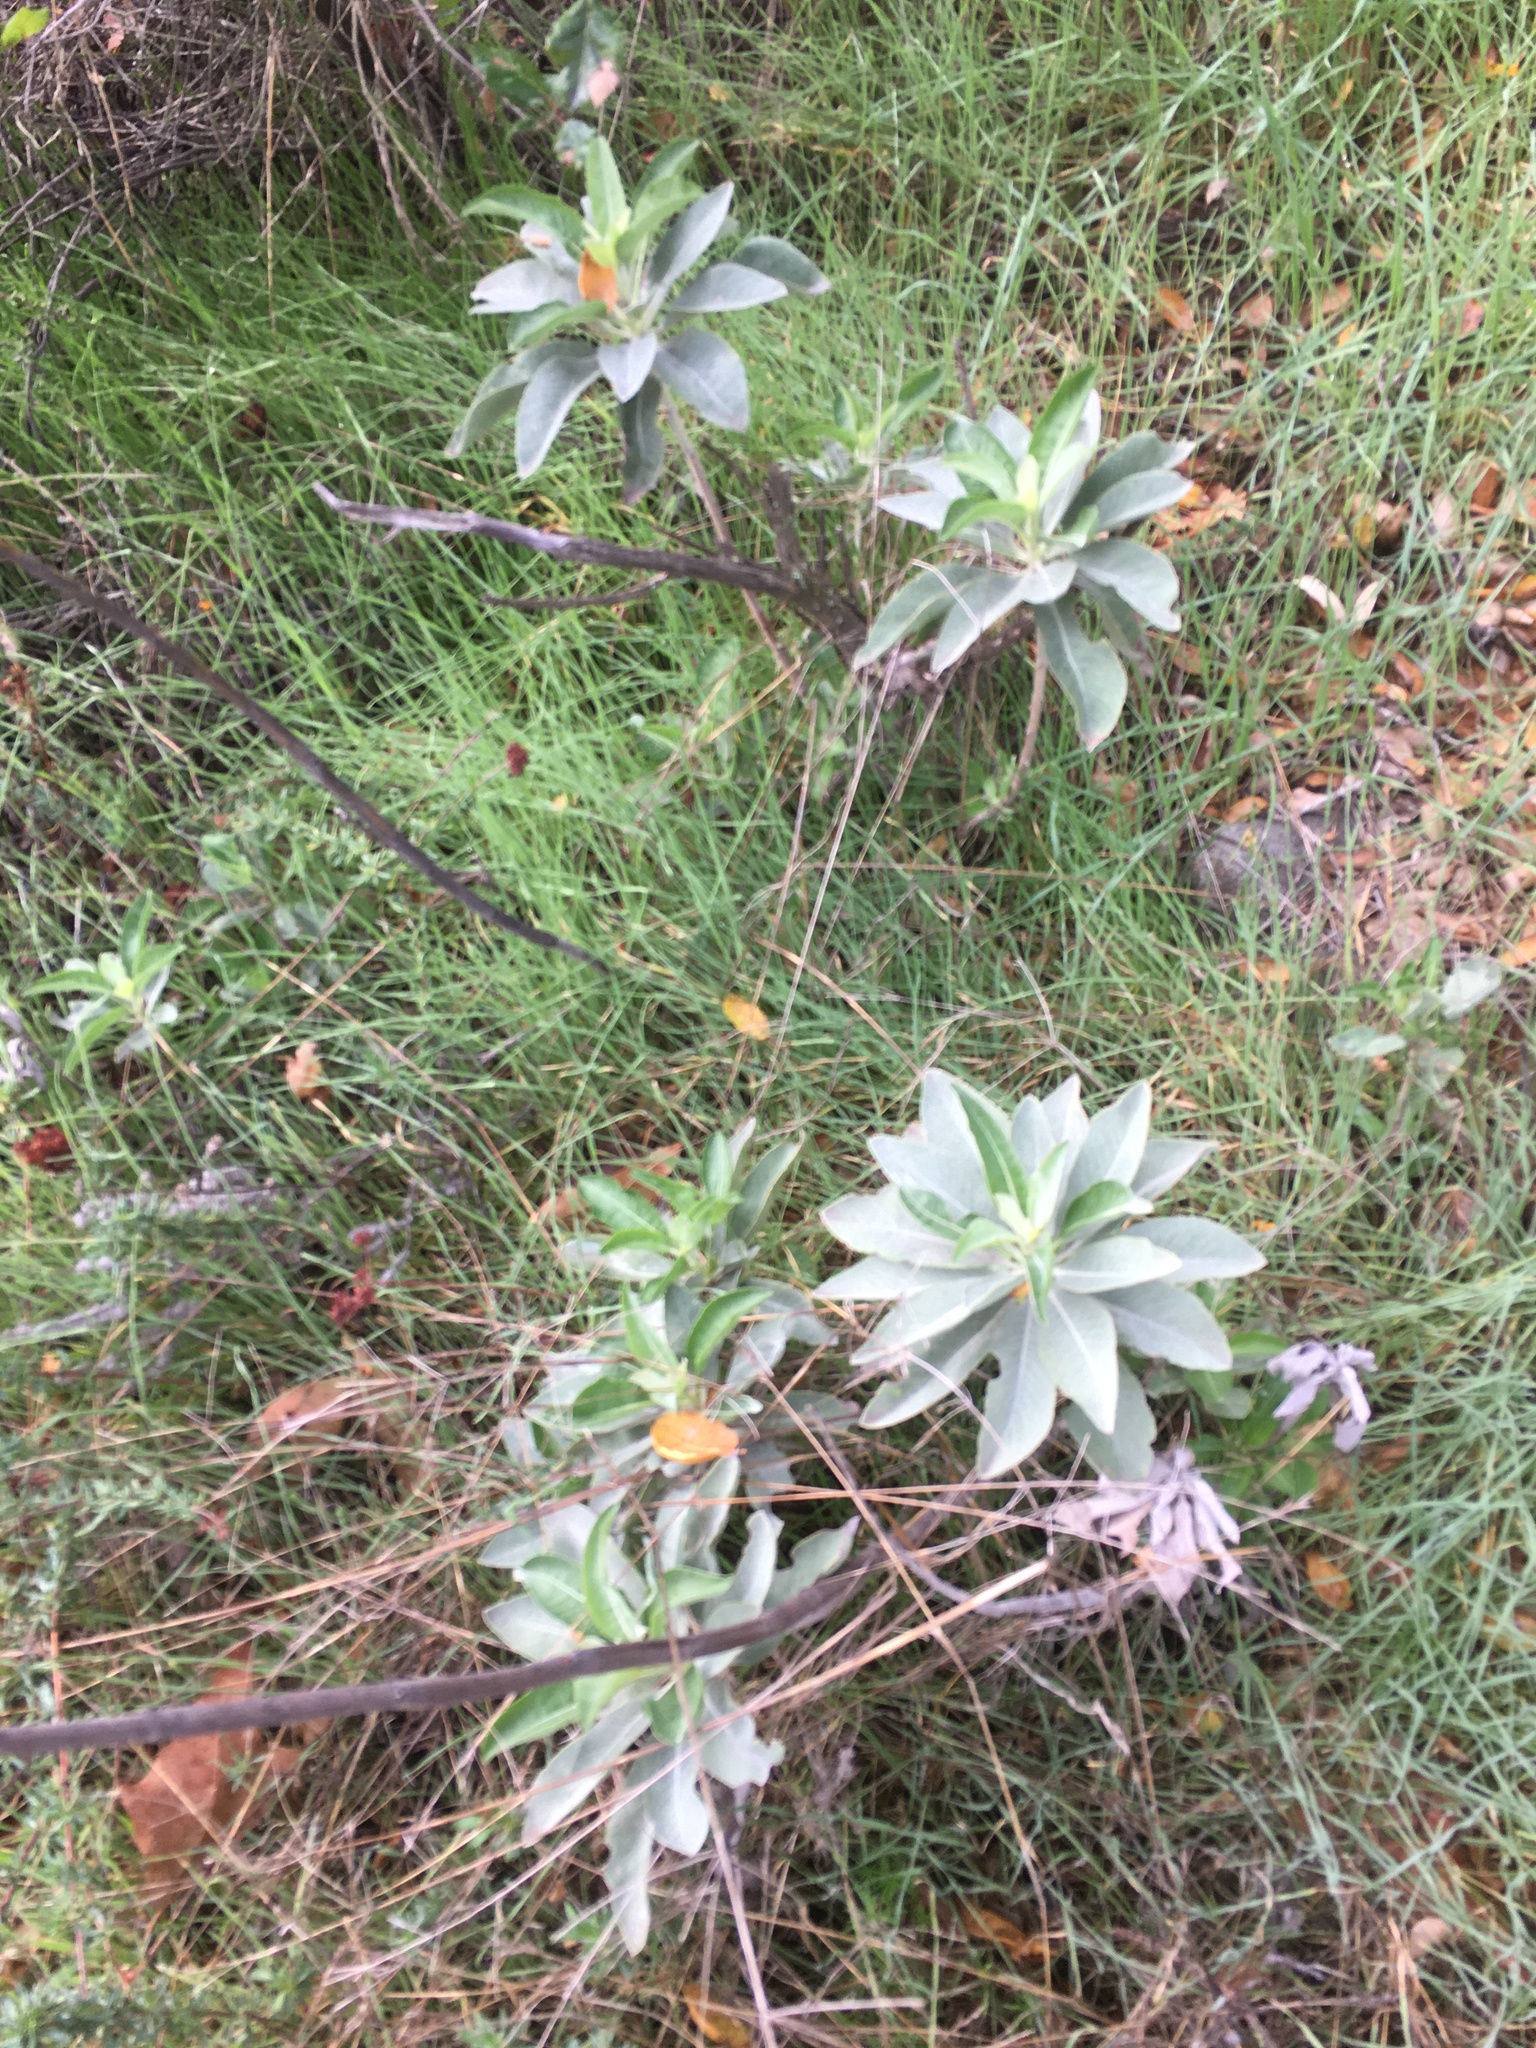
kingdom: Plantae
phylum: Tracheophyta
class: Magnoliopsida
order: Lamiales
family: Lamiaceae
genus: Salvia
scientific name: Salvia apiana
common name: White sage
